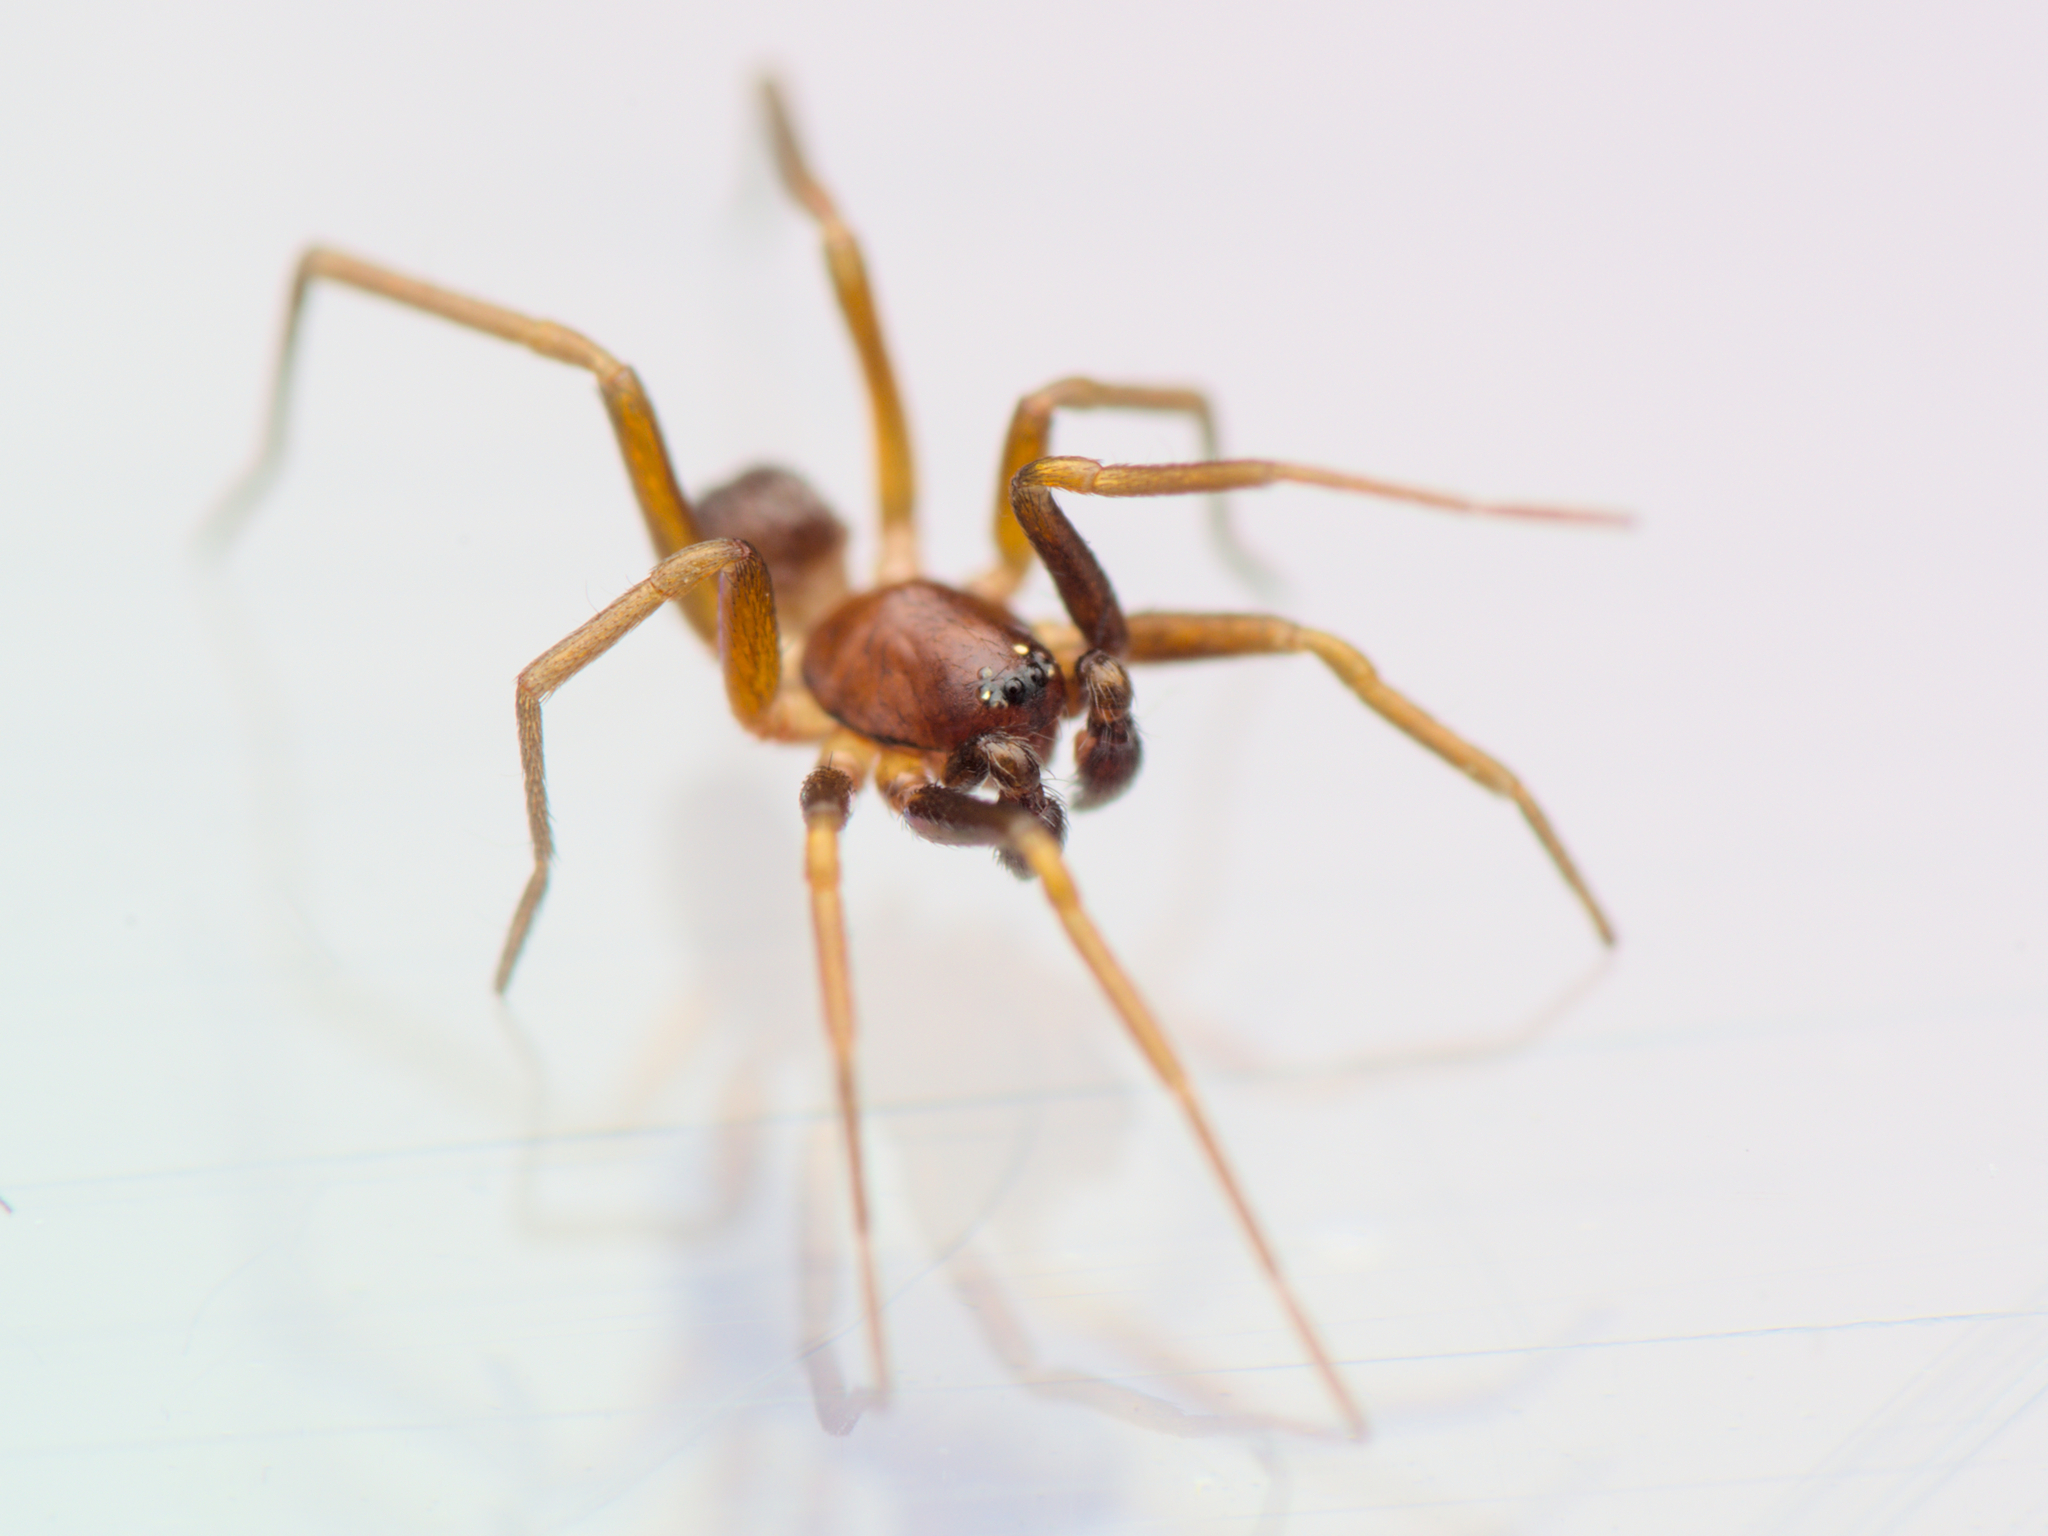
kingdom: Animalia
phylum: Arthropoda
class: Arachnida
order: Araneae
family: Zodariidae
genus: Zodarion
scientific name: Zodarion italicum
